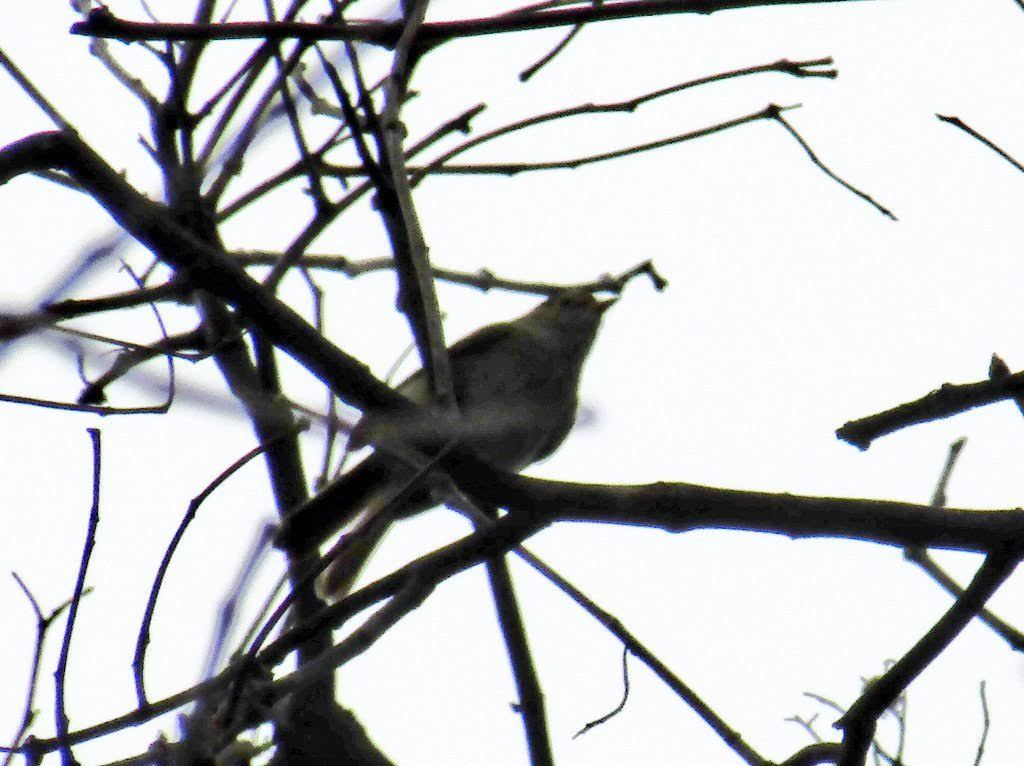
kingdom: Animalia
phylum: Chordata
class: Aves
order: Passeriformes
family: Tyrannidae
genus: Elaenia
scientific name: Elaenia parvirostris
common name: Small-billed elaenia
